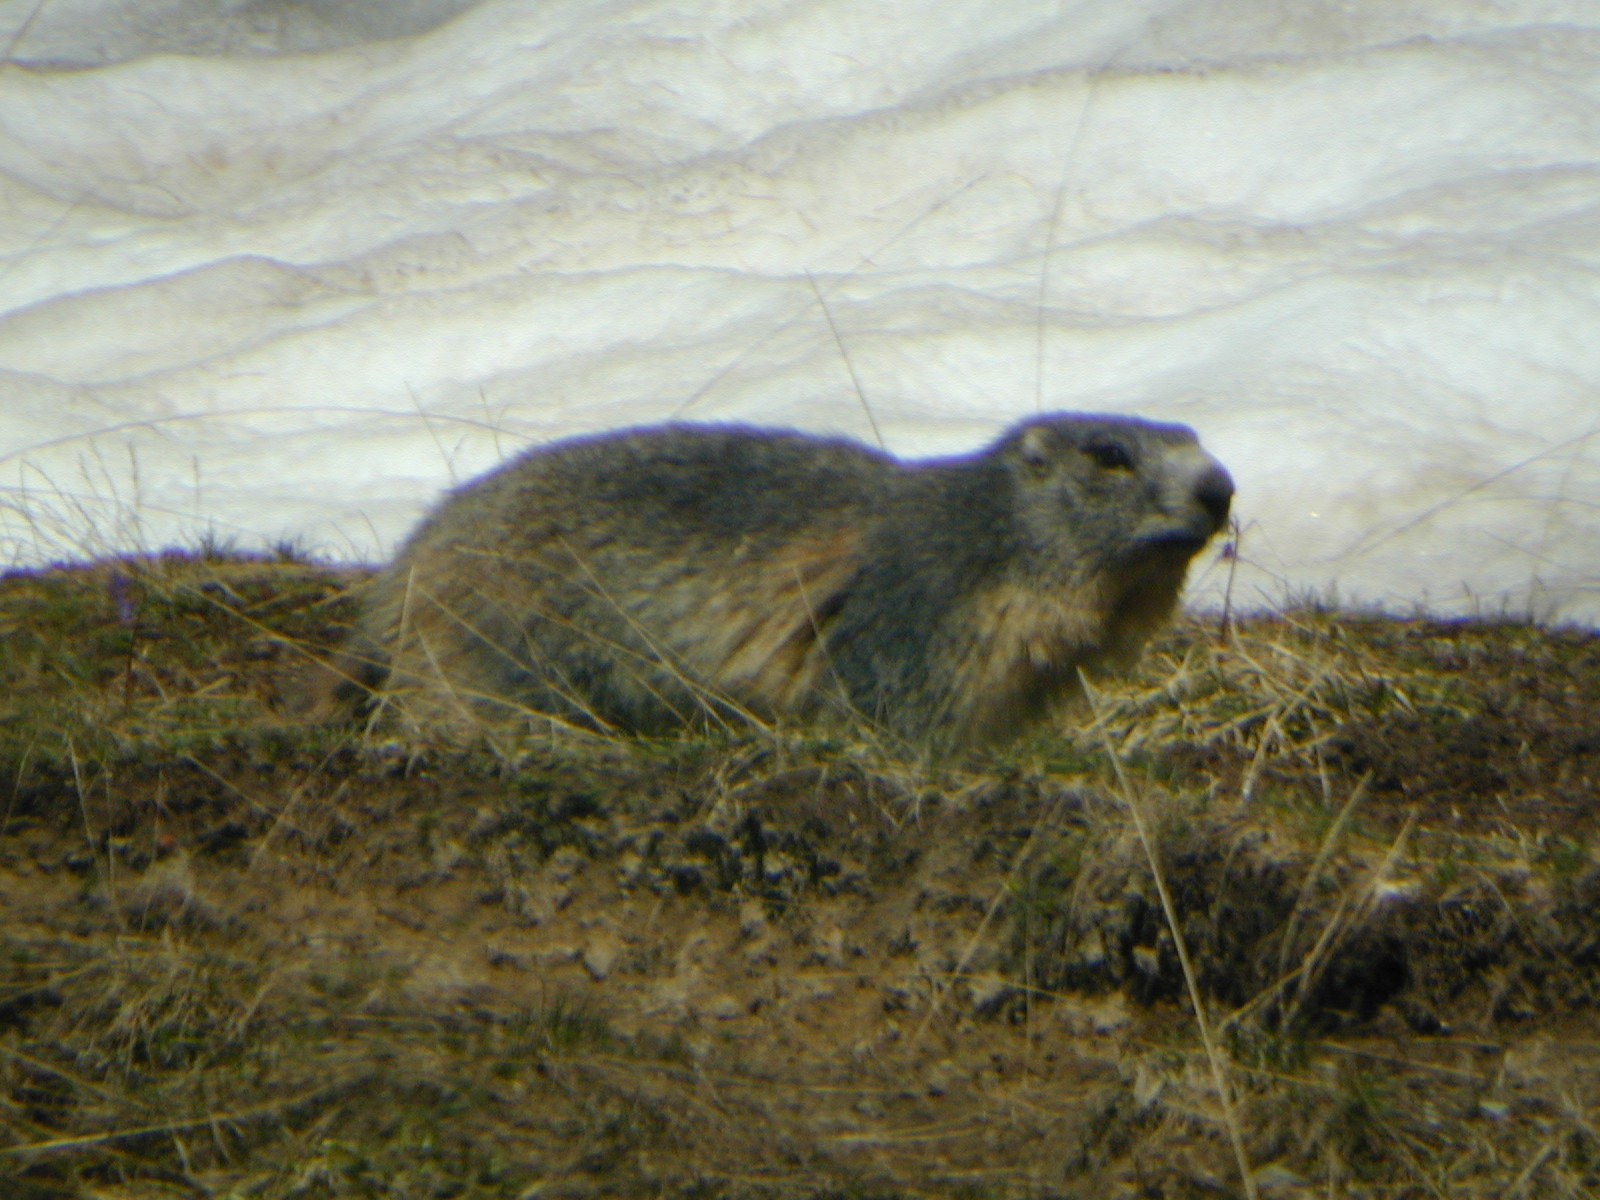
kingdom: Animalia
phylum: Chordata
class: Mammalia
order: Rodentia
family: Sciuridae
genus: Marmota
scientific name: Marmota marmota
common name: Alpine marmot
